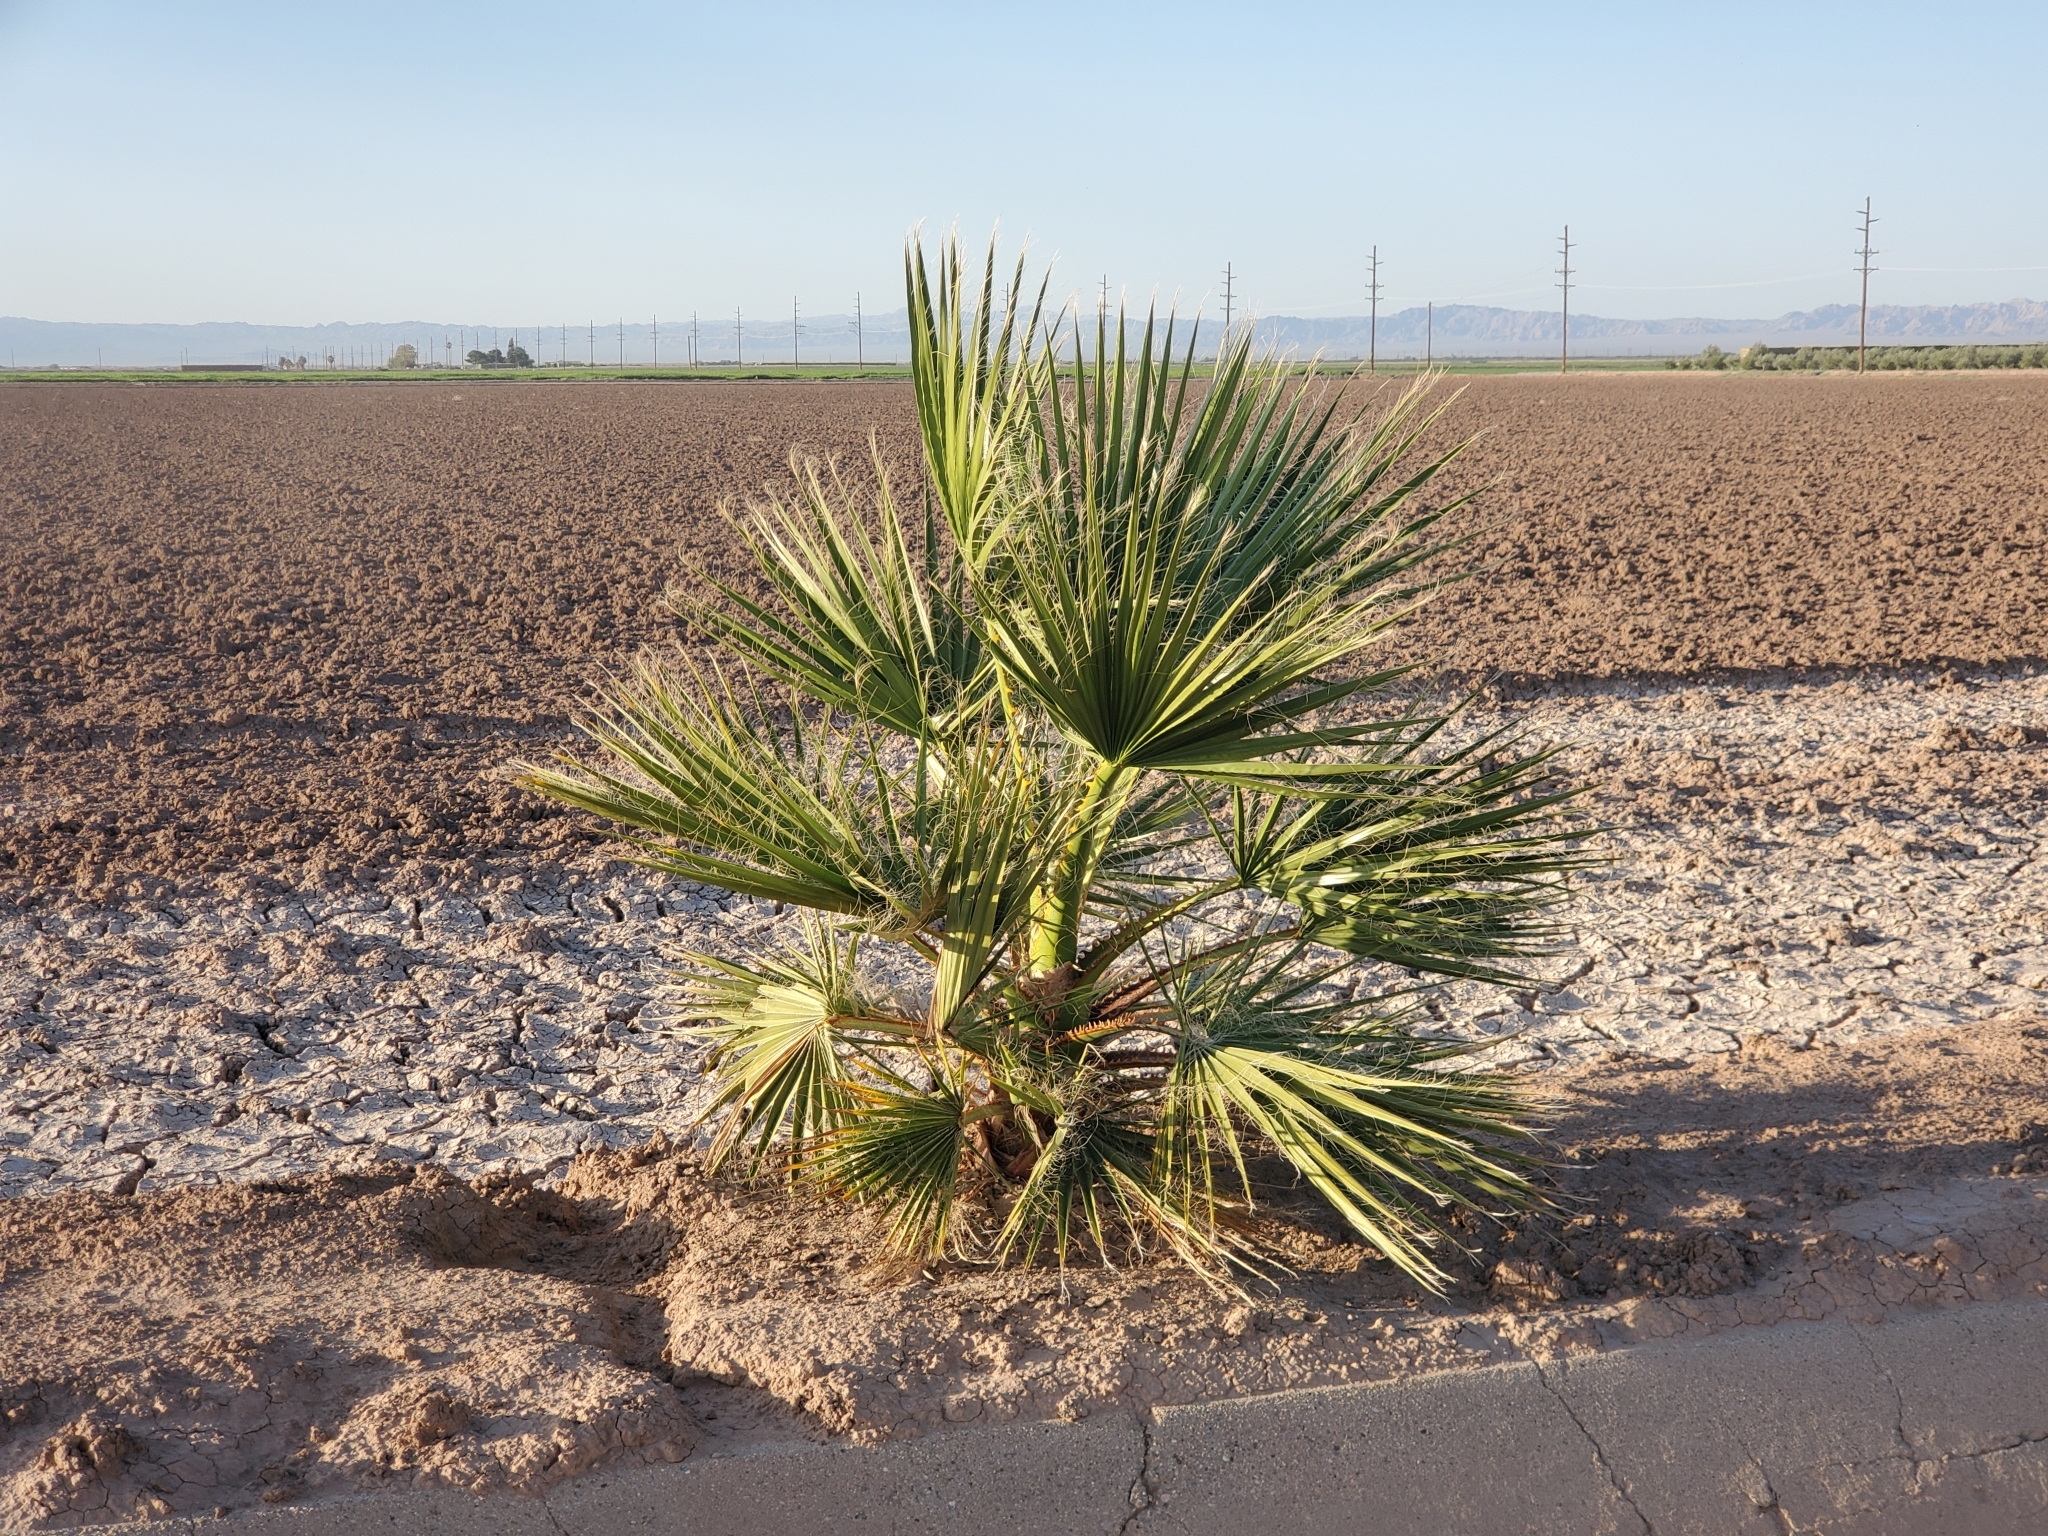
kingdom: Plantae
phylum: Tracheophyta
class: Liliopsida
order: Arecales
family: Arecaceae
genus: Washingtonia
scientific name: Washingtonia filifera
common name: California fan palm
